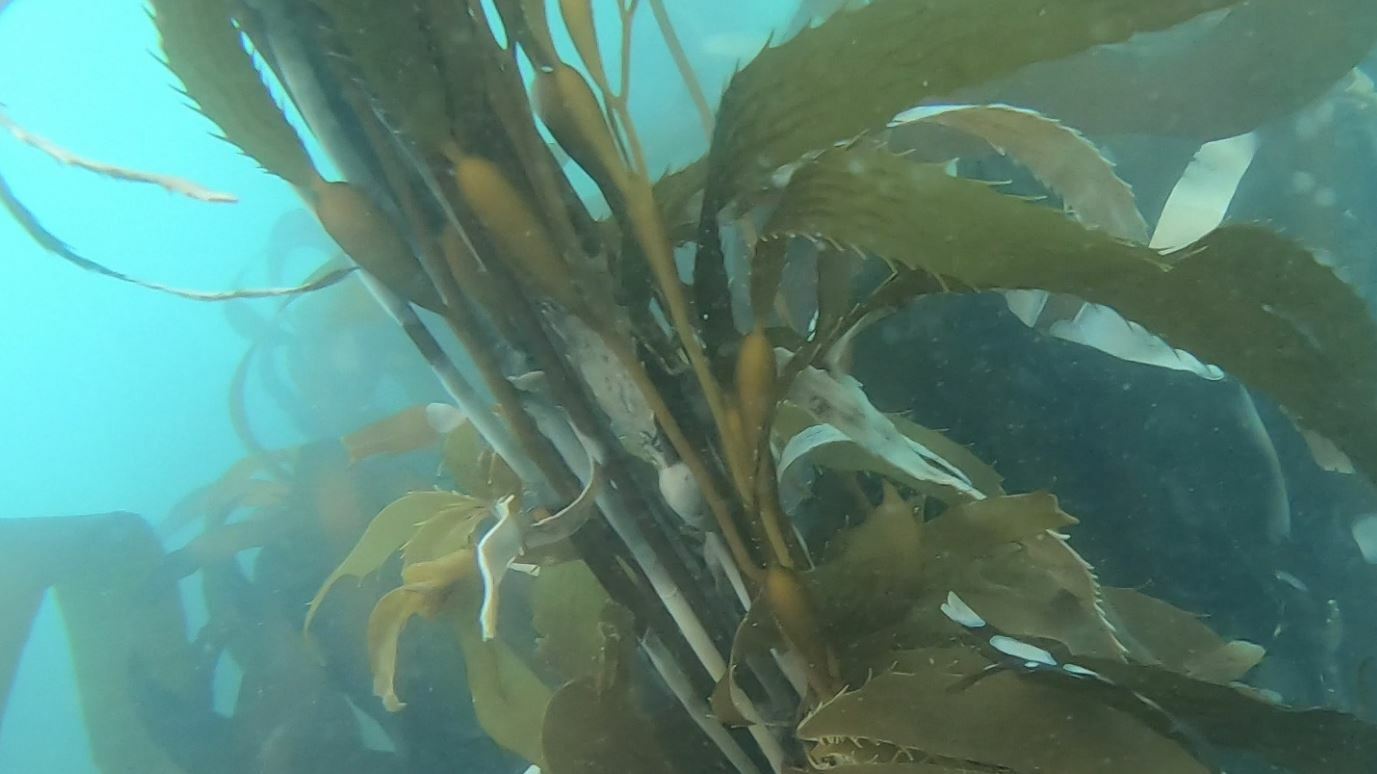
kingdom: Chromista
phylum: Ochrophyta
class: Phaeophyceae
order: Laminariales
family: Laminariaceae
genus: Macrocystis
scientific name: Macrocystis pyrifera
